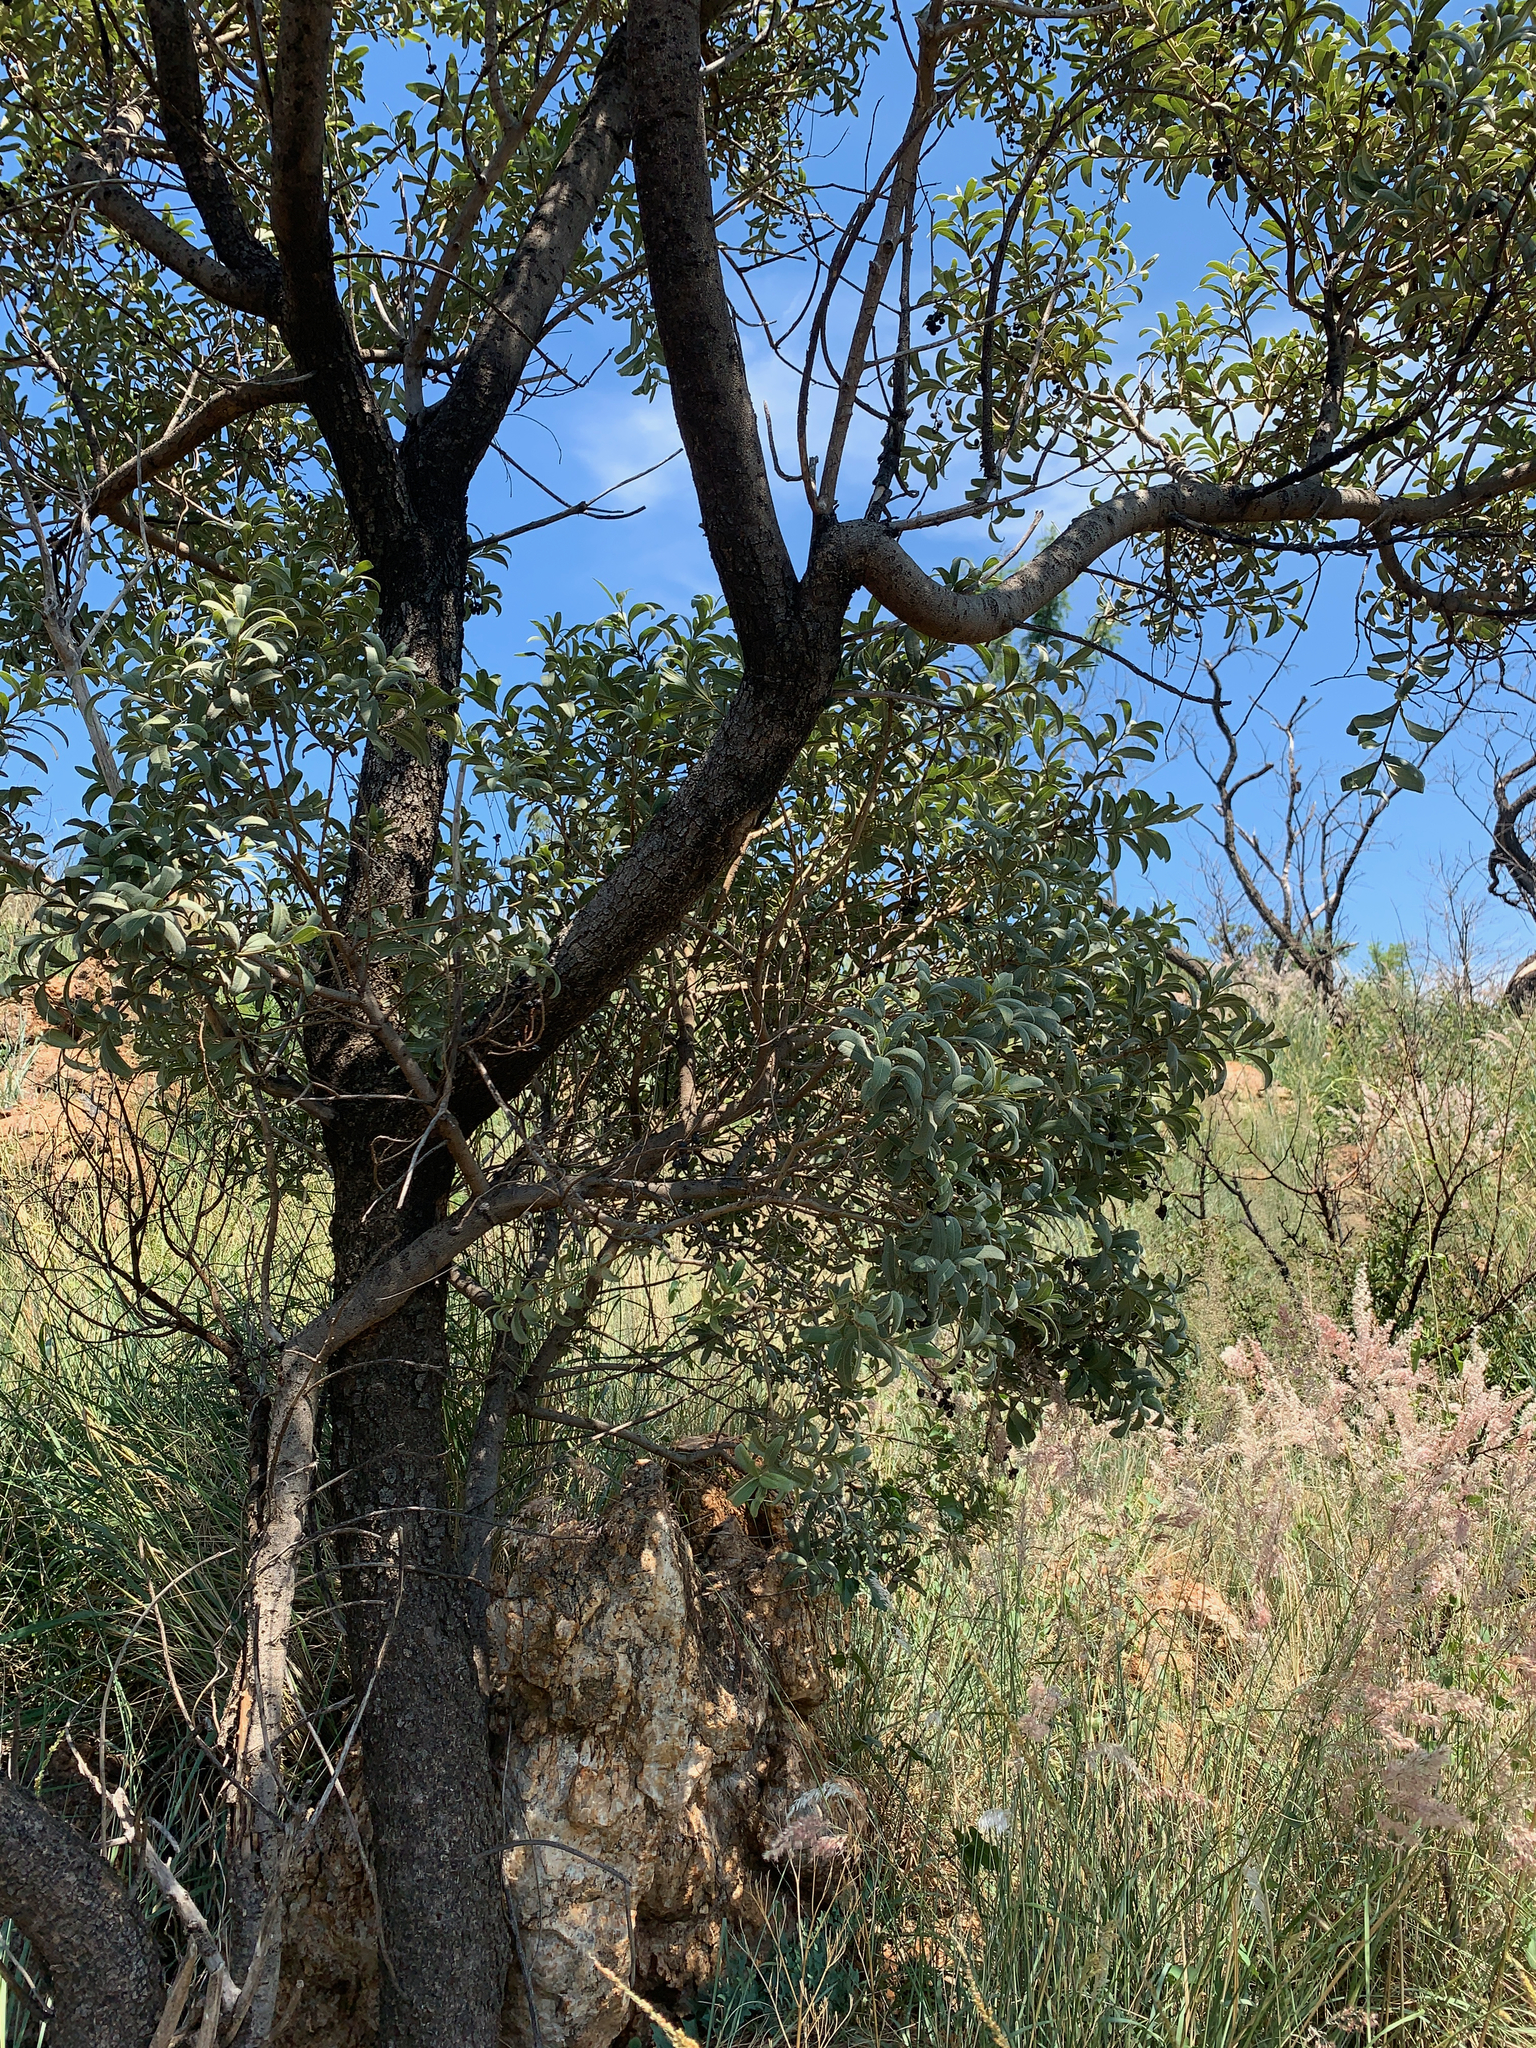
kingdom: Plantae
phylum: Tracheophyta
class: Magnoliopsida
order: Sapindales
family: Anacardiaceae
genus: Ozoroa
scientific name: Ozoroa paniculosa
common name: Bushveld ozoroa
